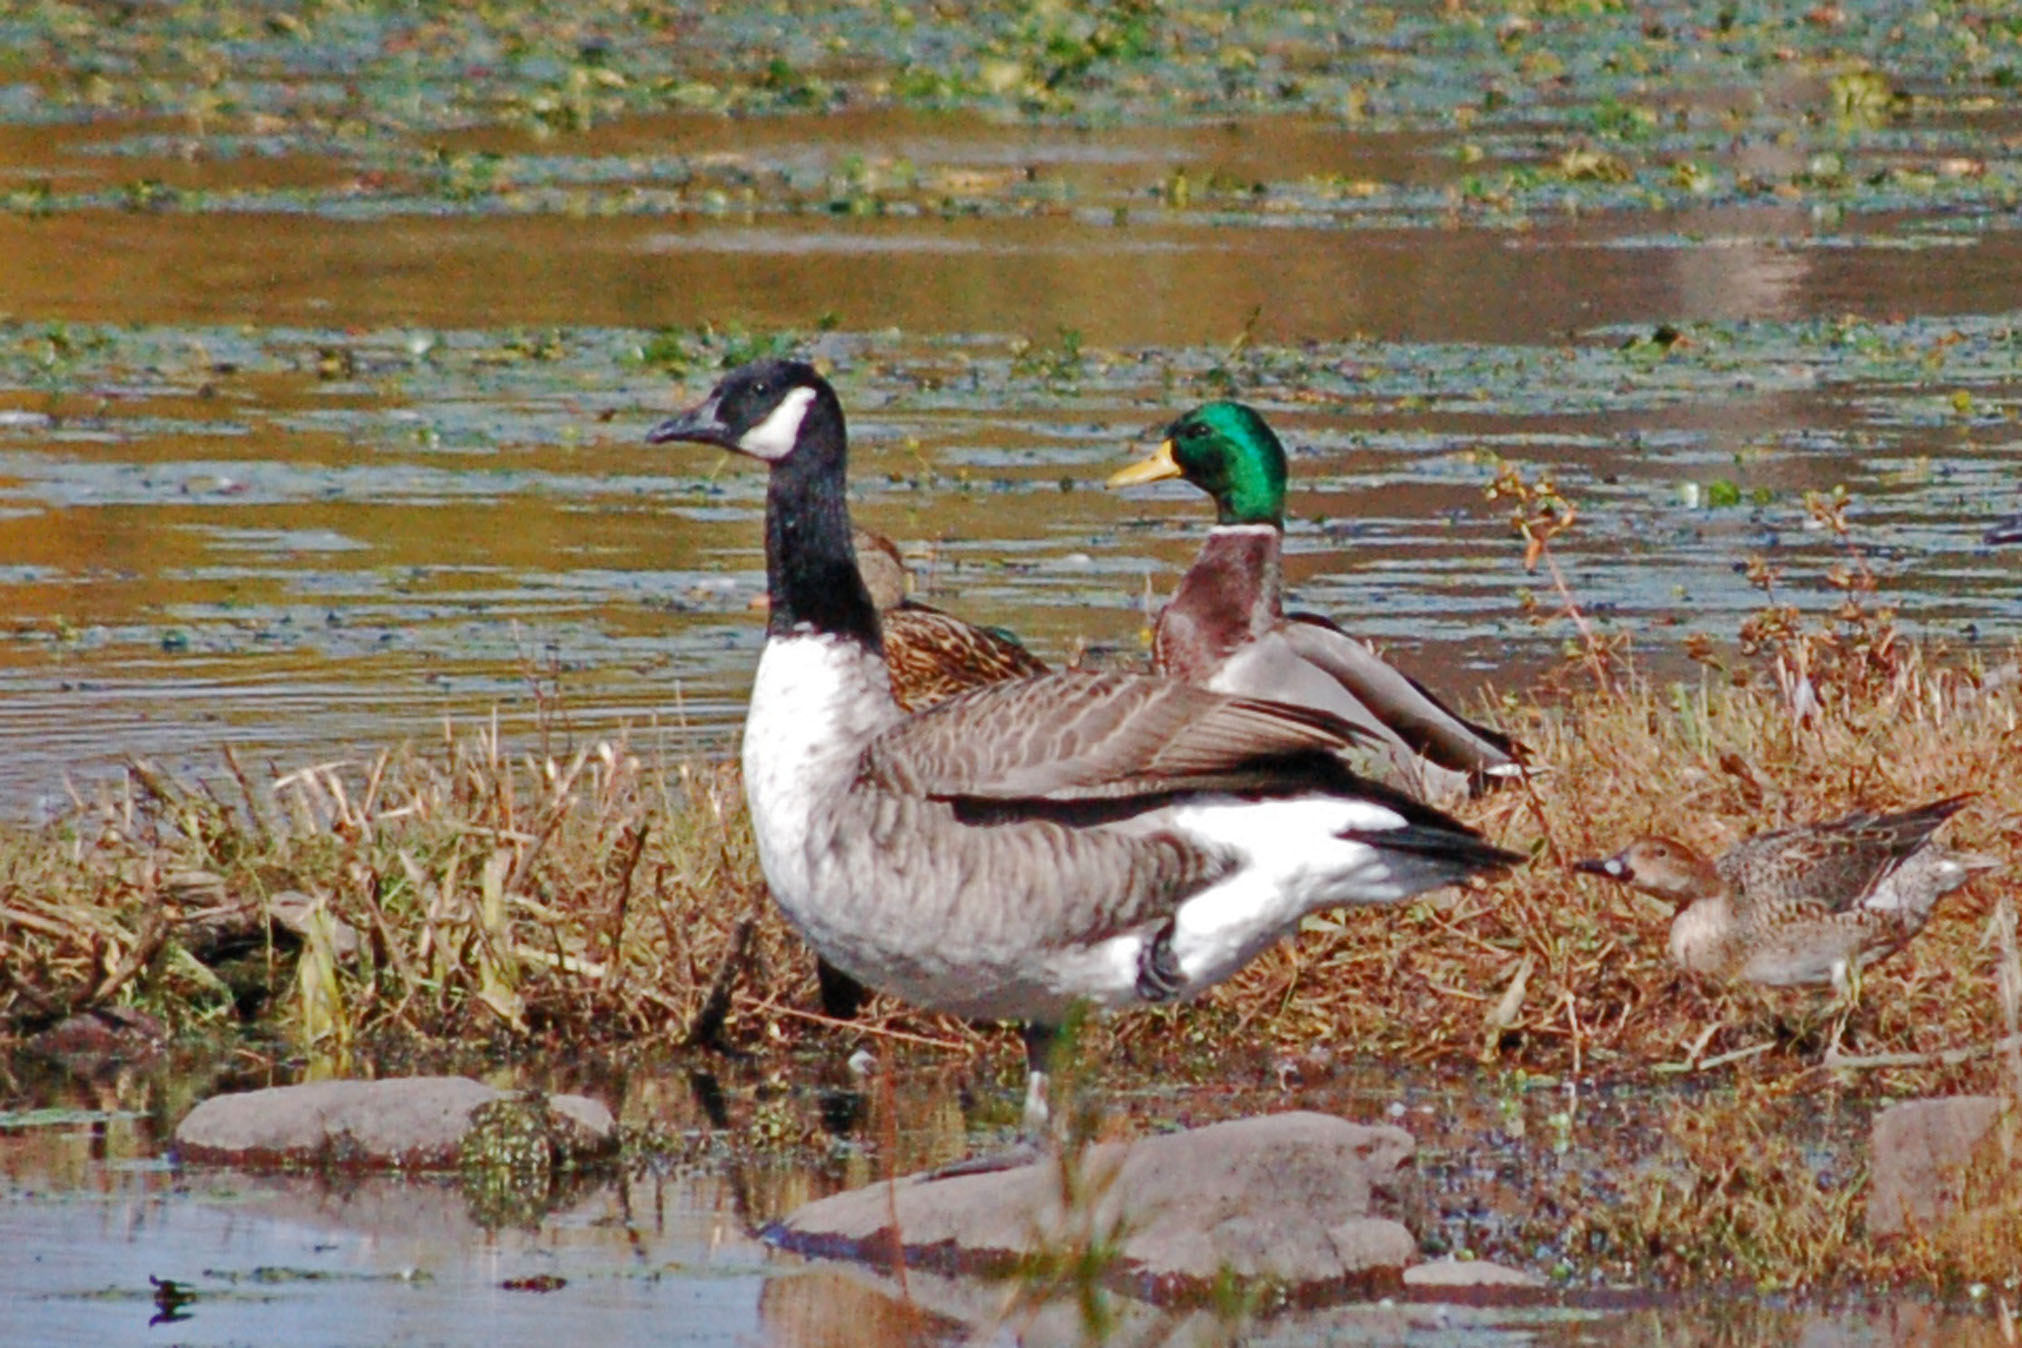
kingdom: Animalia
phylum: Chordata
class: Aves
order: Anseriformes
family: Anatidae
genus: Branta
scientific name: Branta canadensis
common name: Canada goose
